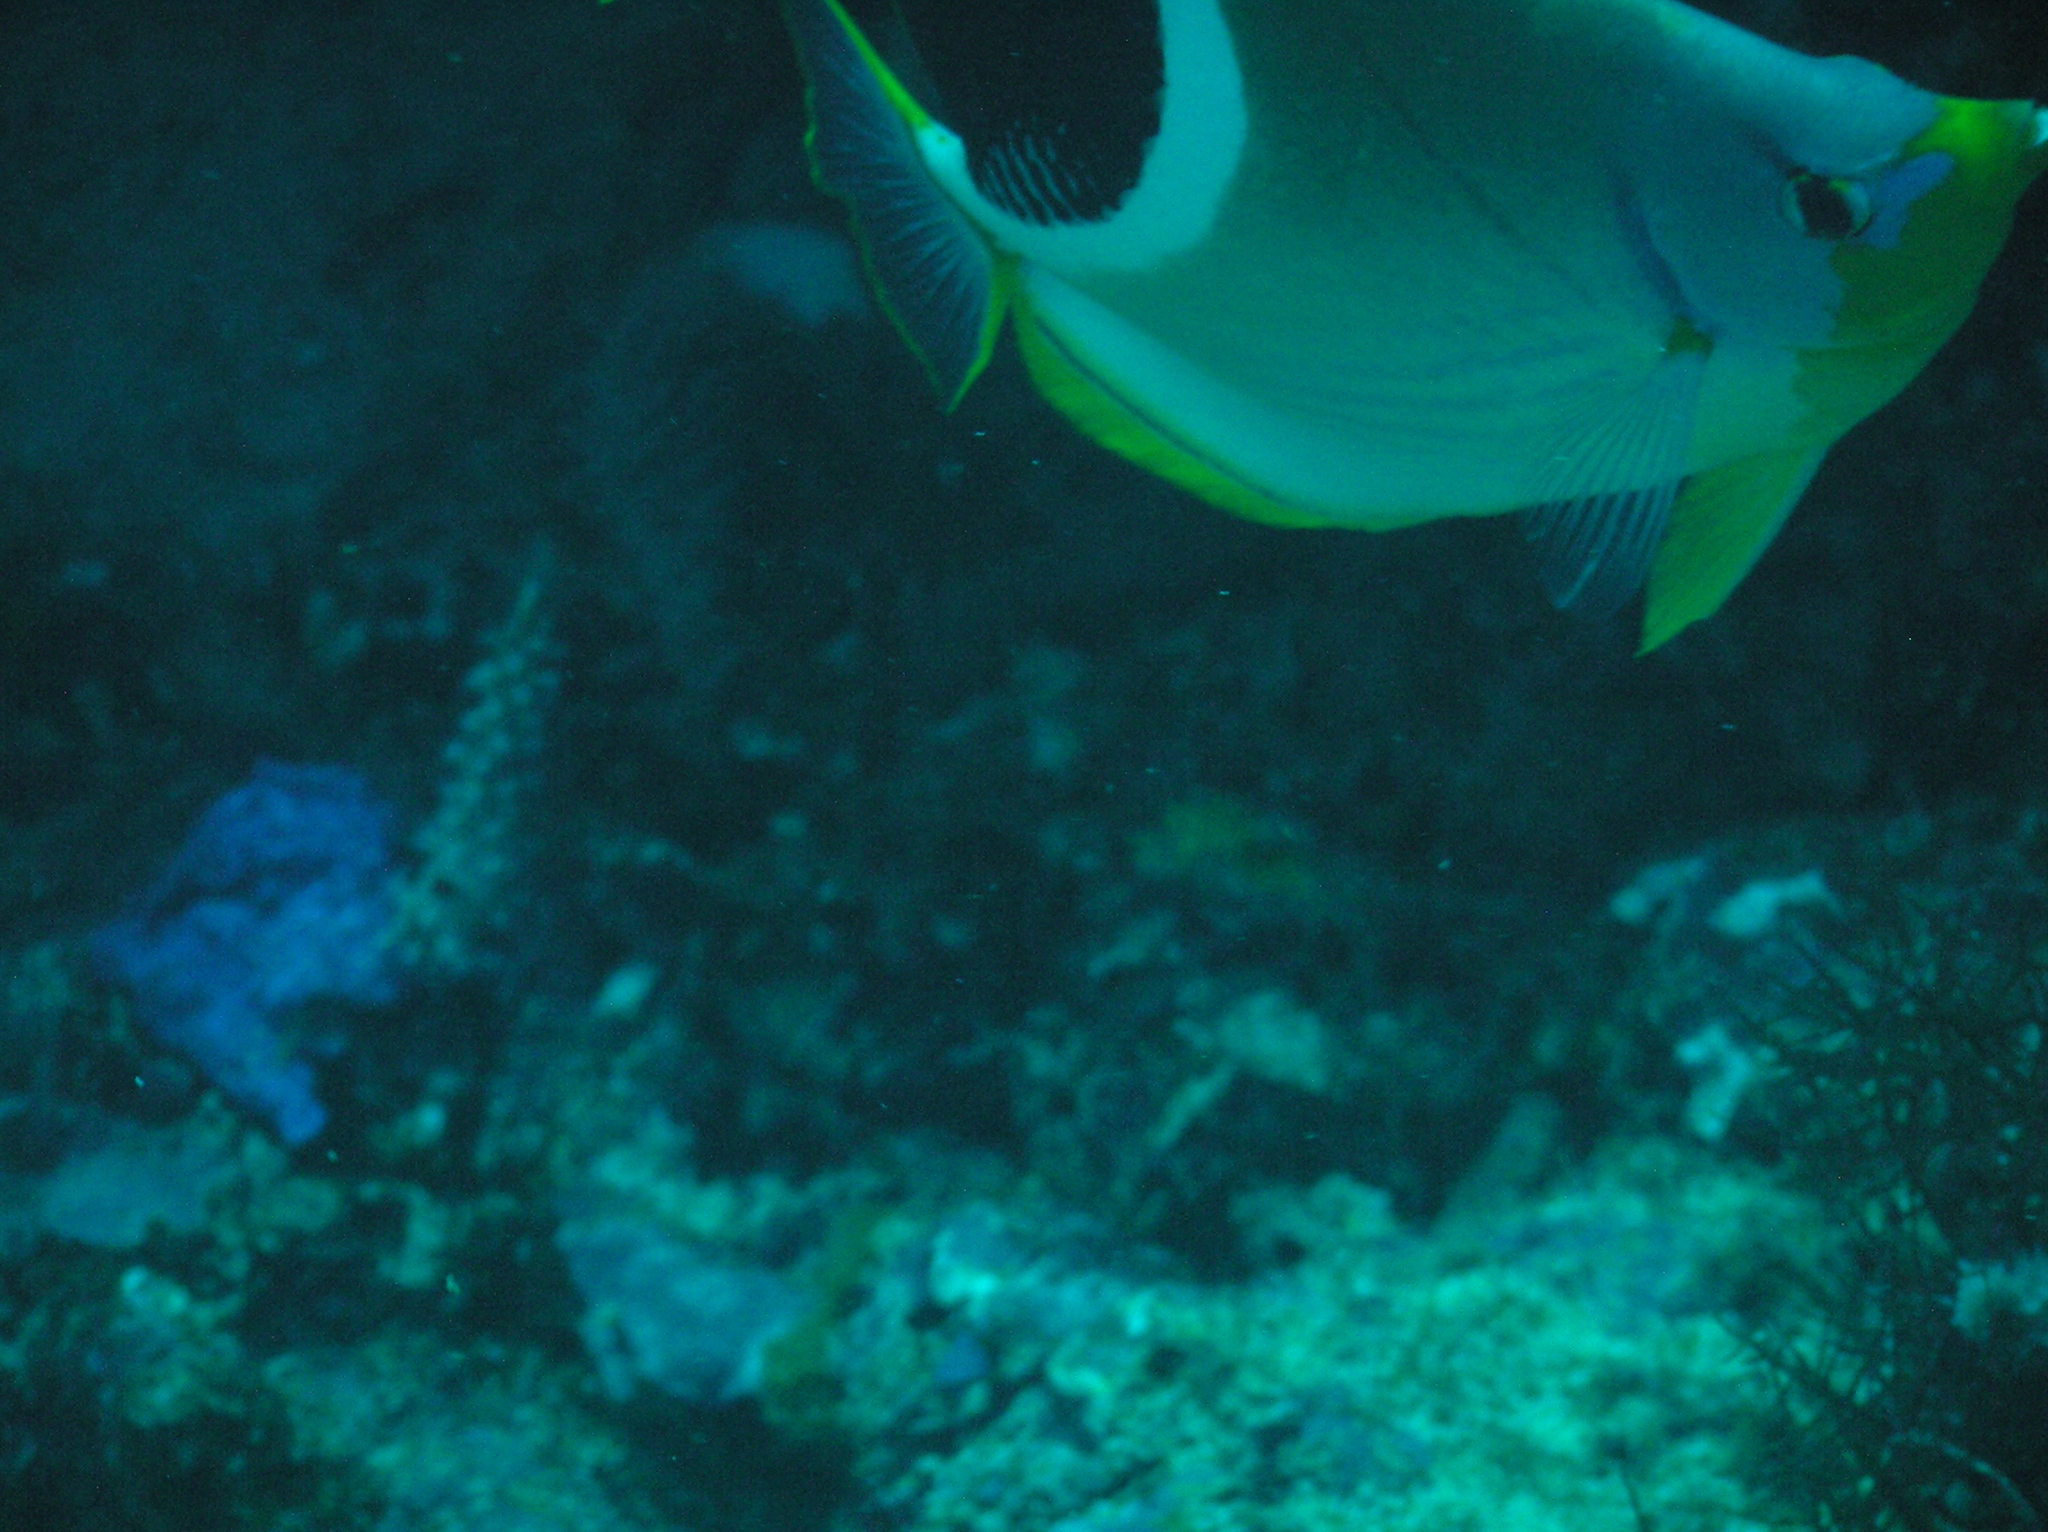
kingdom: Animalia
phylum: Chordata
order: Perciformes
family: Chaetodontidae
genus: Chaetodon
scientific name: Chaetodon ephippium
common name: Saddled butterflyfish
